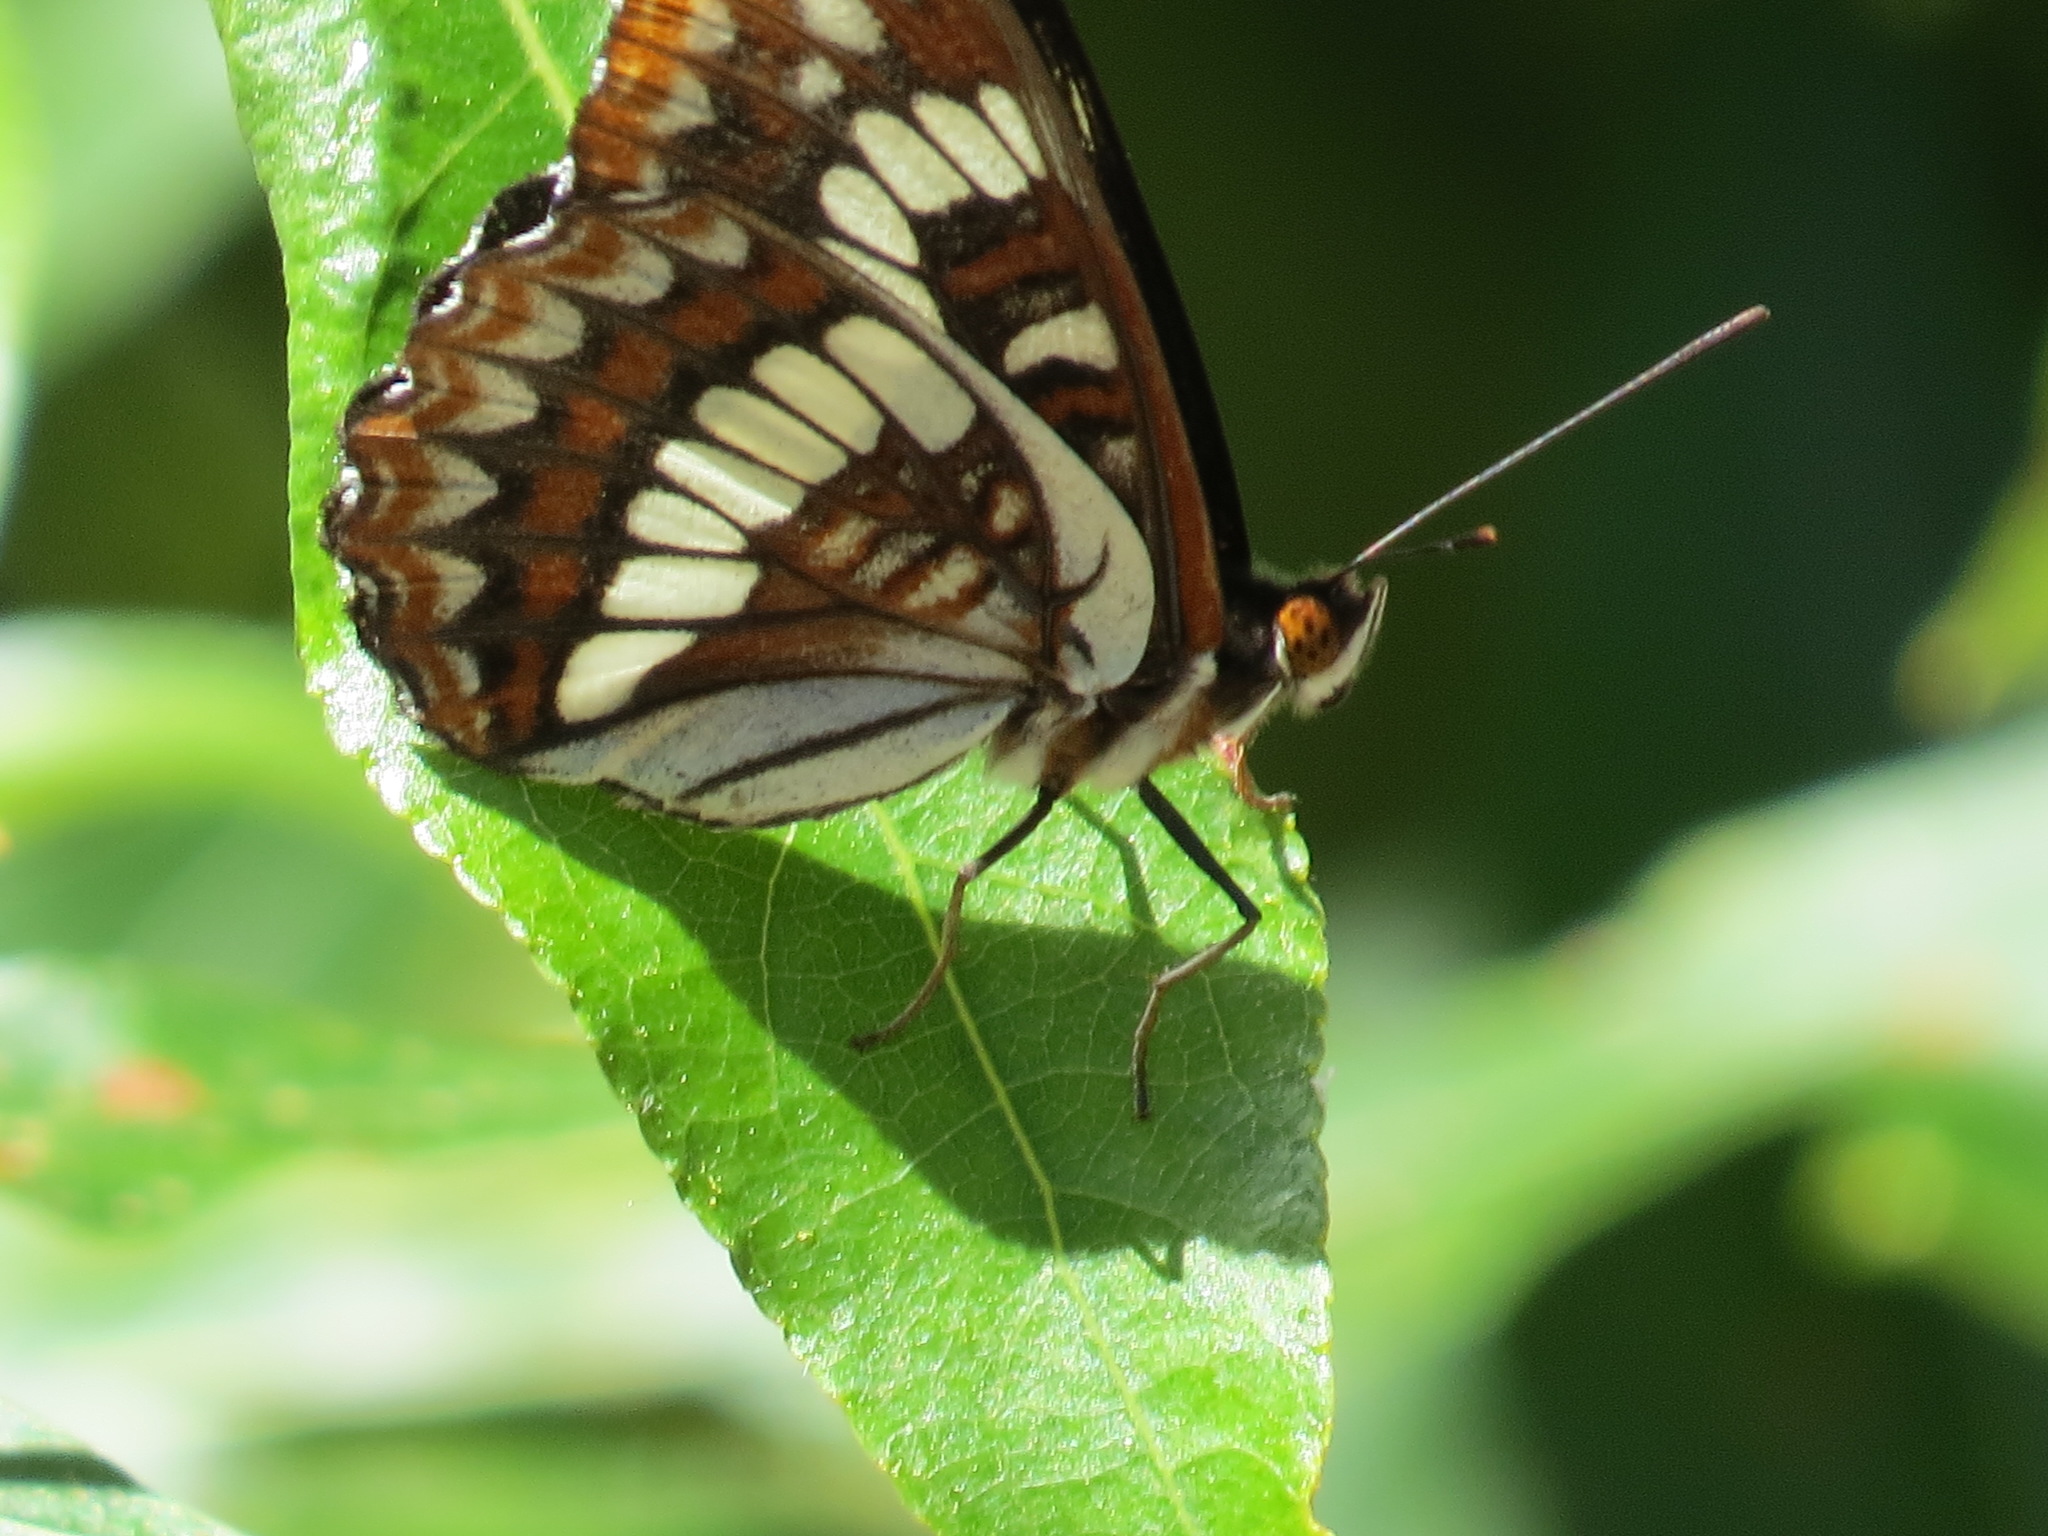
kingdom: Animalia
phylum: Arthropoda
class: Insecta
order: Lepidoptera
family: Nymphalidae
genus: Limenitis
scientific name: Limenitis lorquini
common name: Lorquin's admiral
